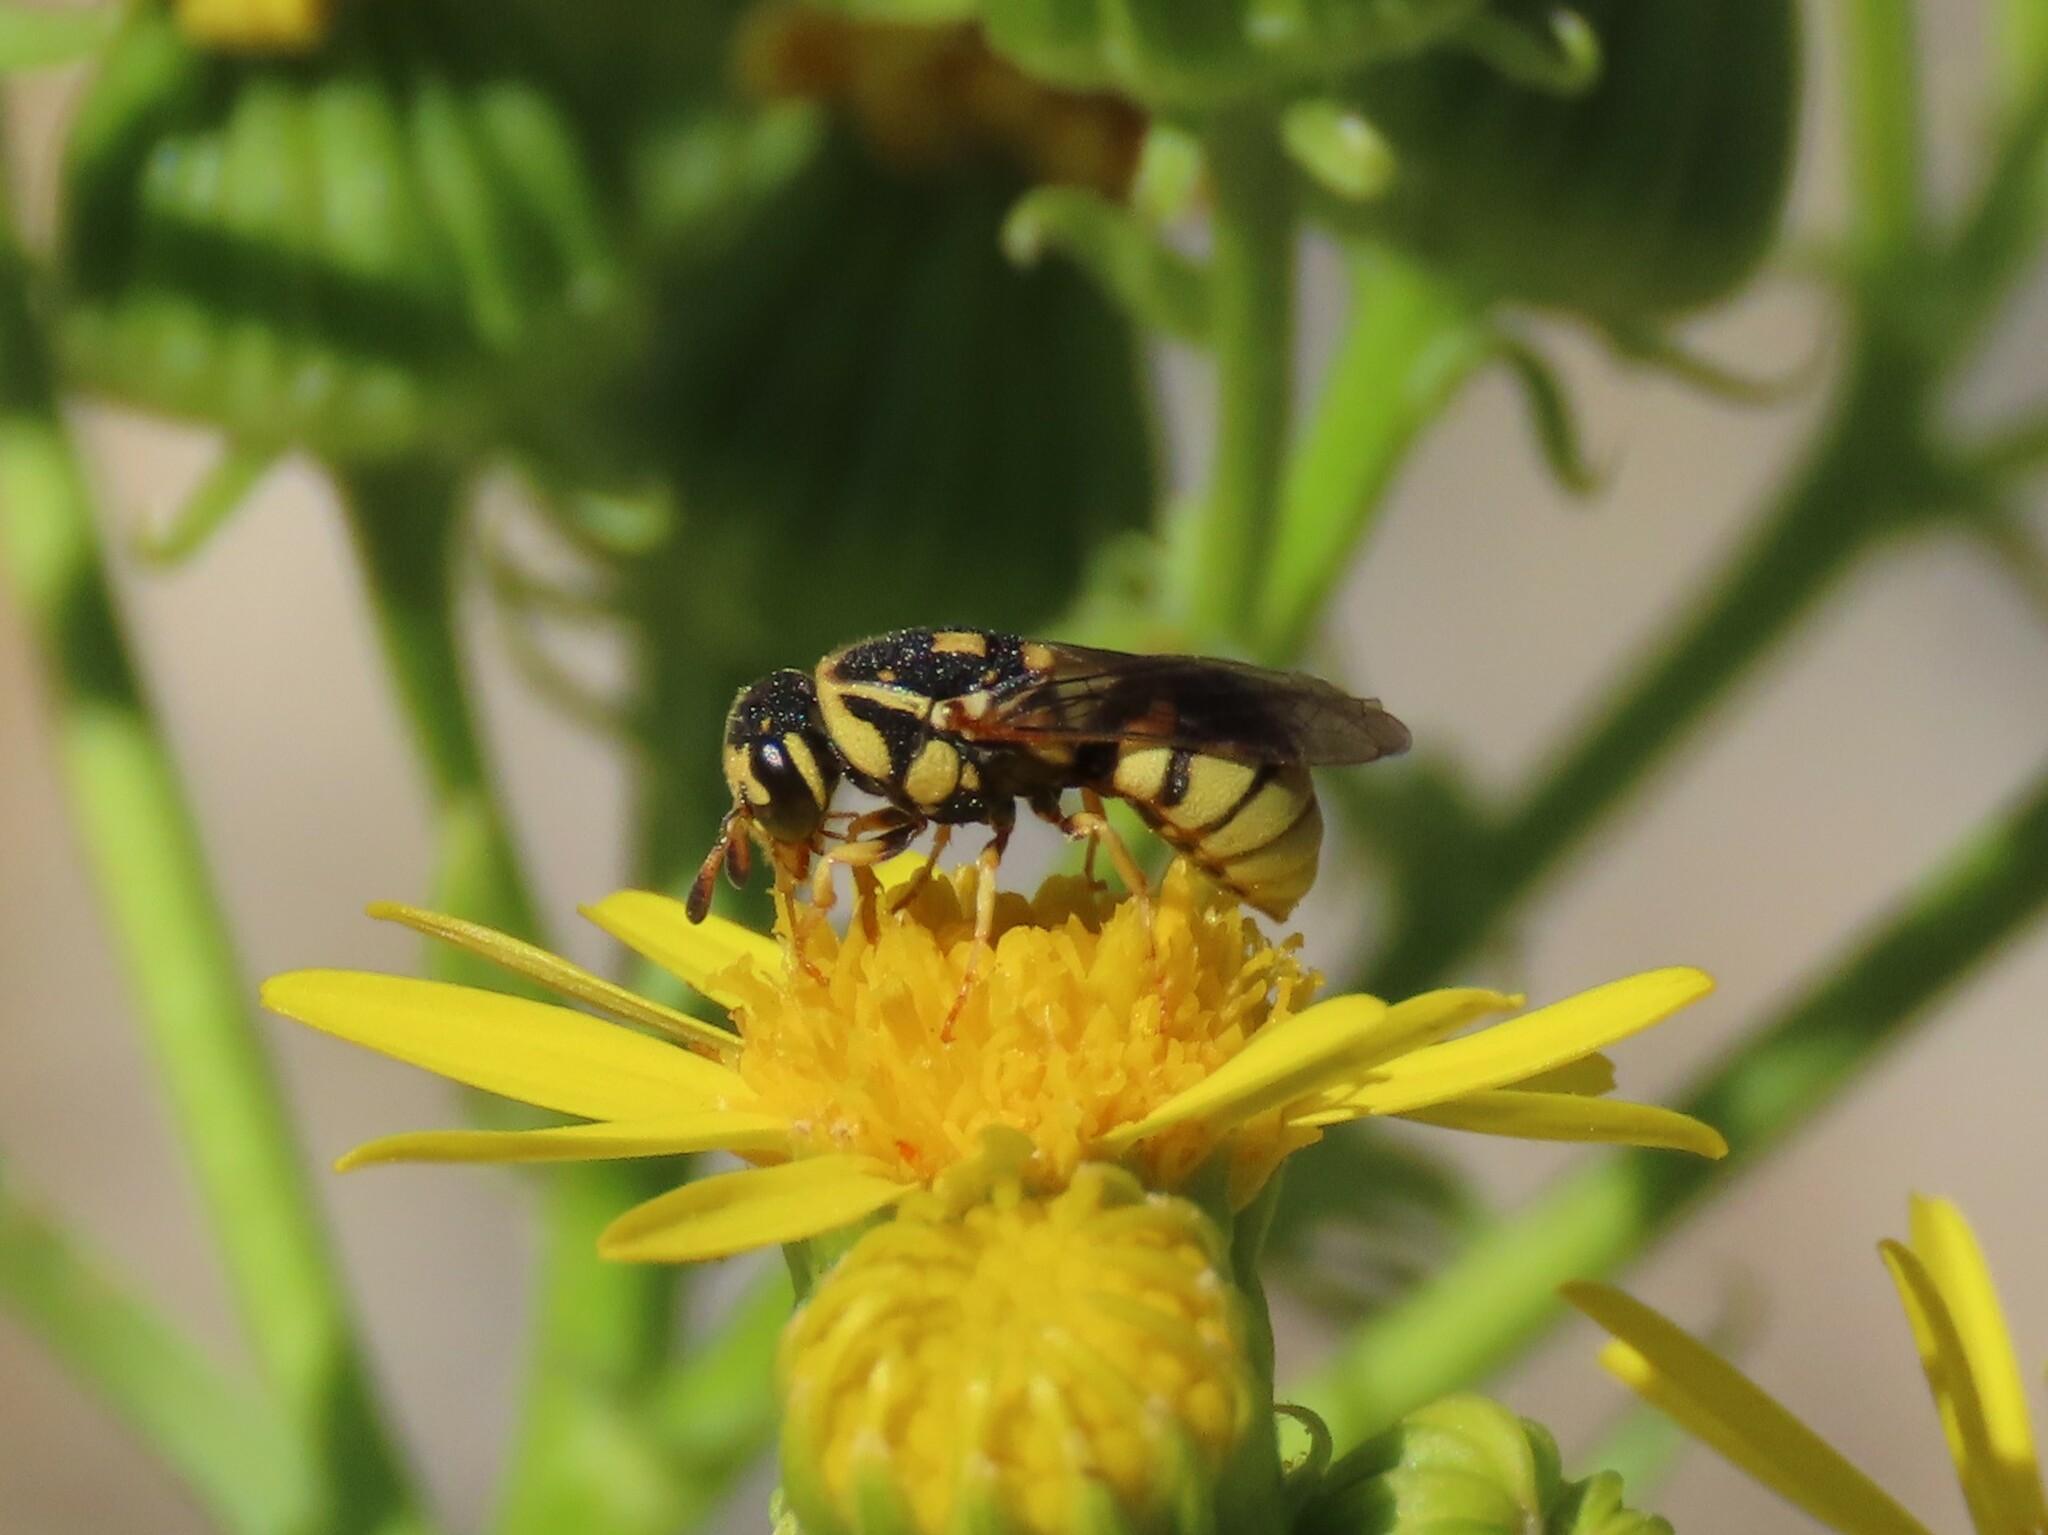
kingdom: Animalia
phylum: Arthropoda
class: Insecta
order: Hymenoptera
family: Masaridae
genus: Jugurtia
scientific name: Jugurtia dispar
